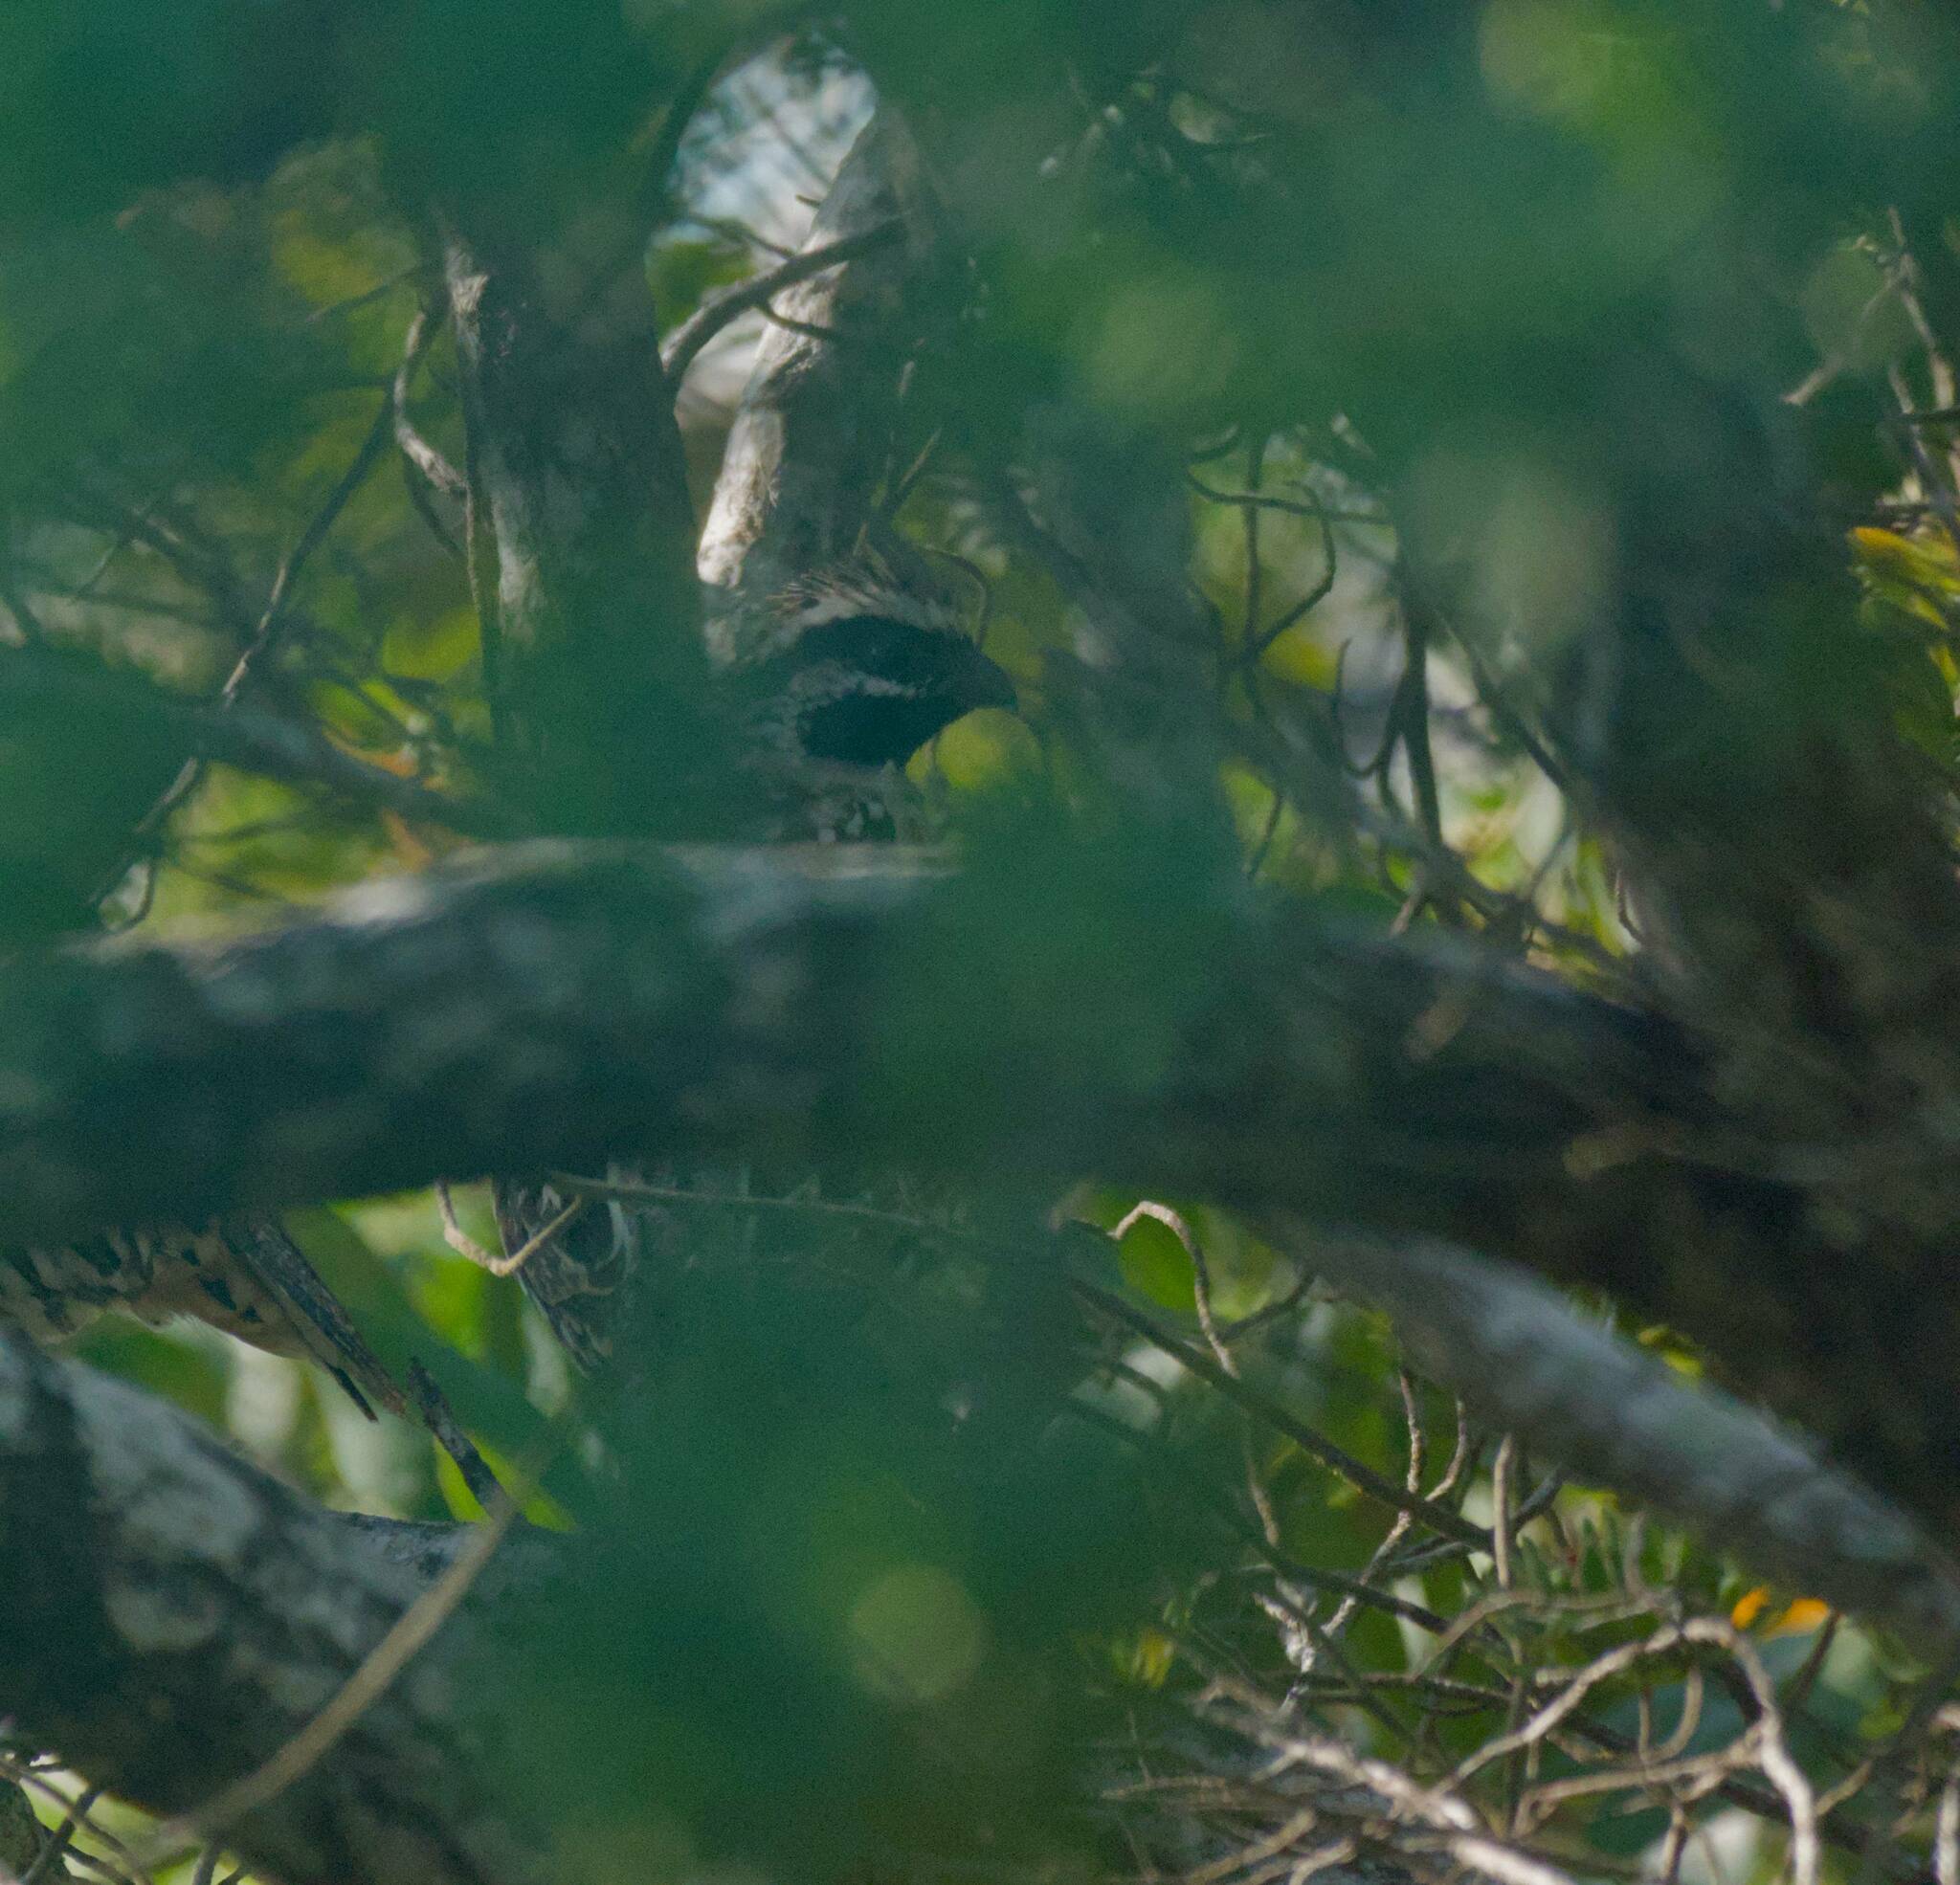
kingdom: Animalia
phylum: Chordata
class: Aves
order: Galliformes
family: Odontophoridae
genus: Colinus
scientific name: Colinus nigrogularis
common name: Yucatan bobwhite
